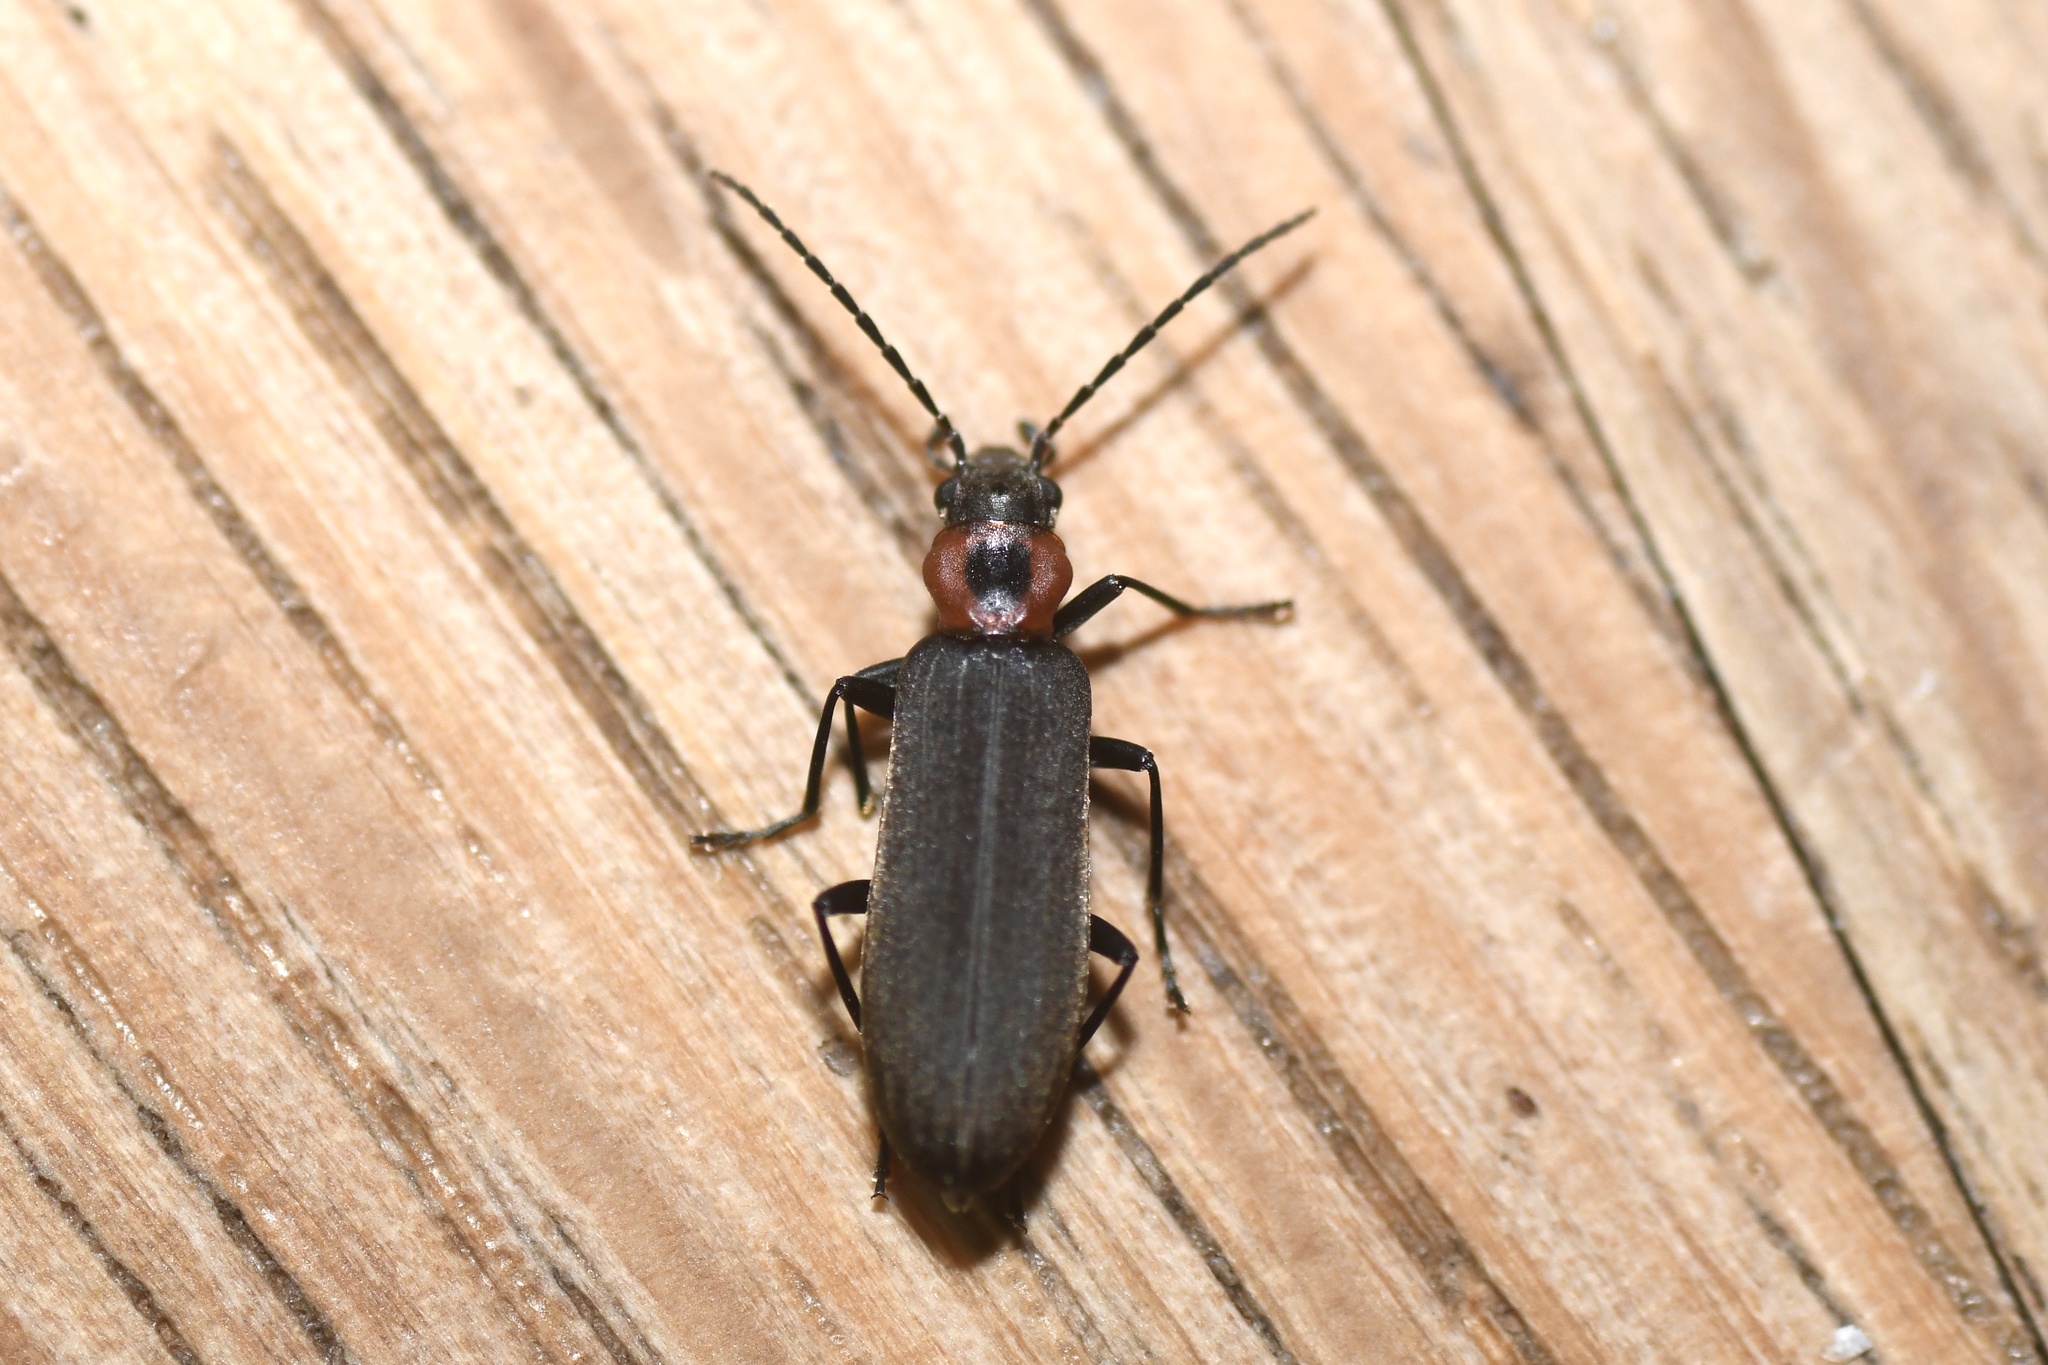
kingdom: Animalia
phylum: Arthropoda
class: Insecta
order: Coleoptera
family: Oedemeridae
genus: Ischnomera
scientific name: Ischnomera
